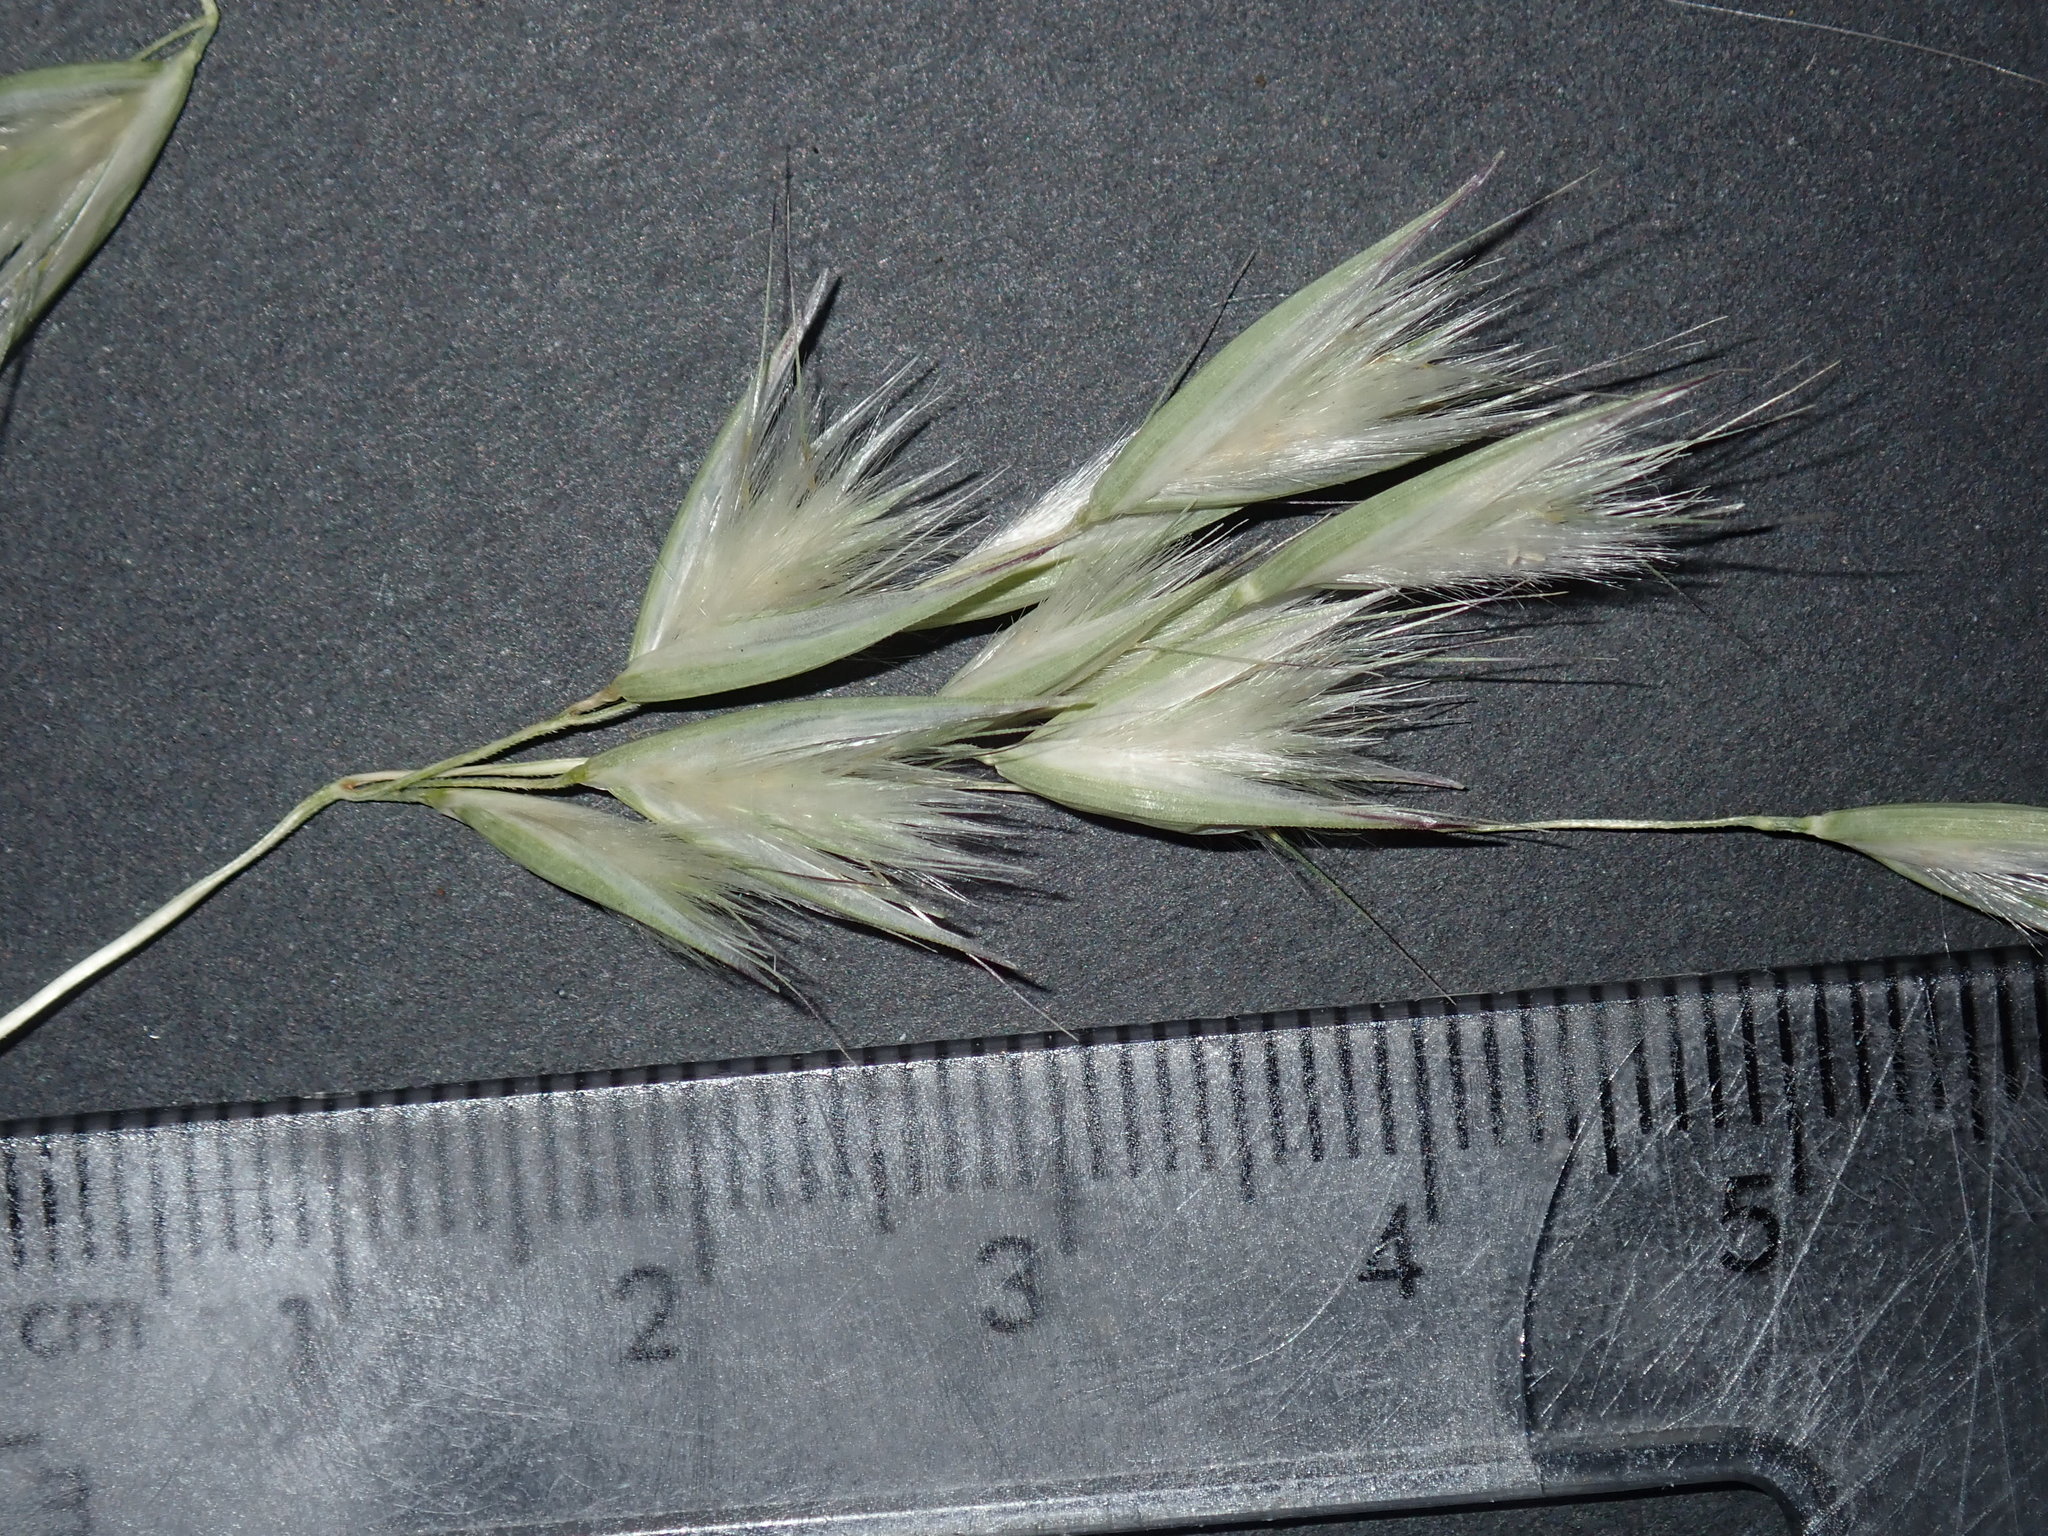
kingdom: Plantae
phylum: Tracheophyta
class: Liliopsida
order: Poales
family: Poaceae
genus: Rytidosperma
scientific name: Rytidosperma fulvum
